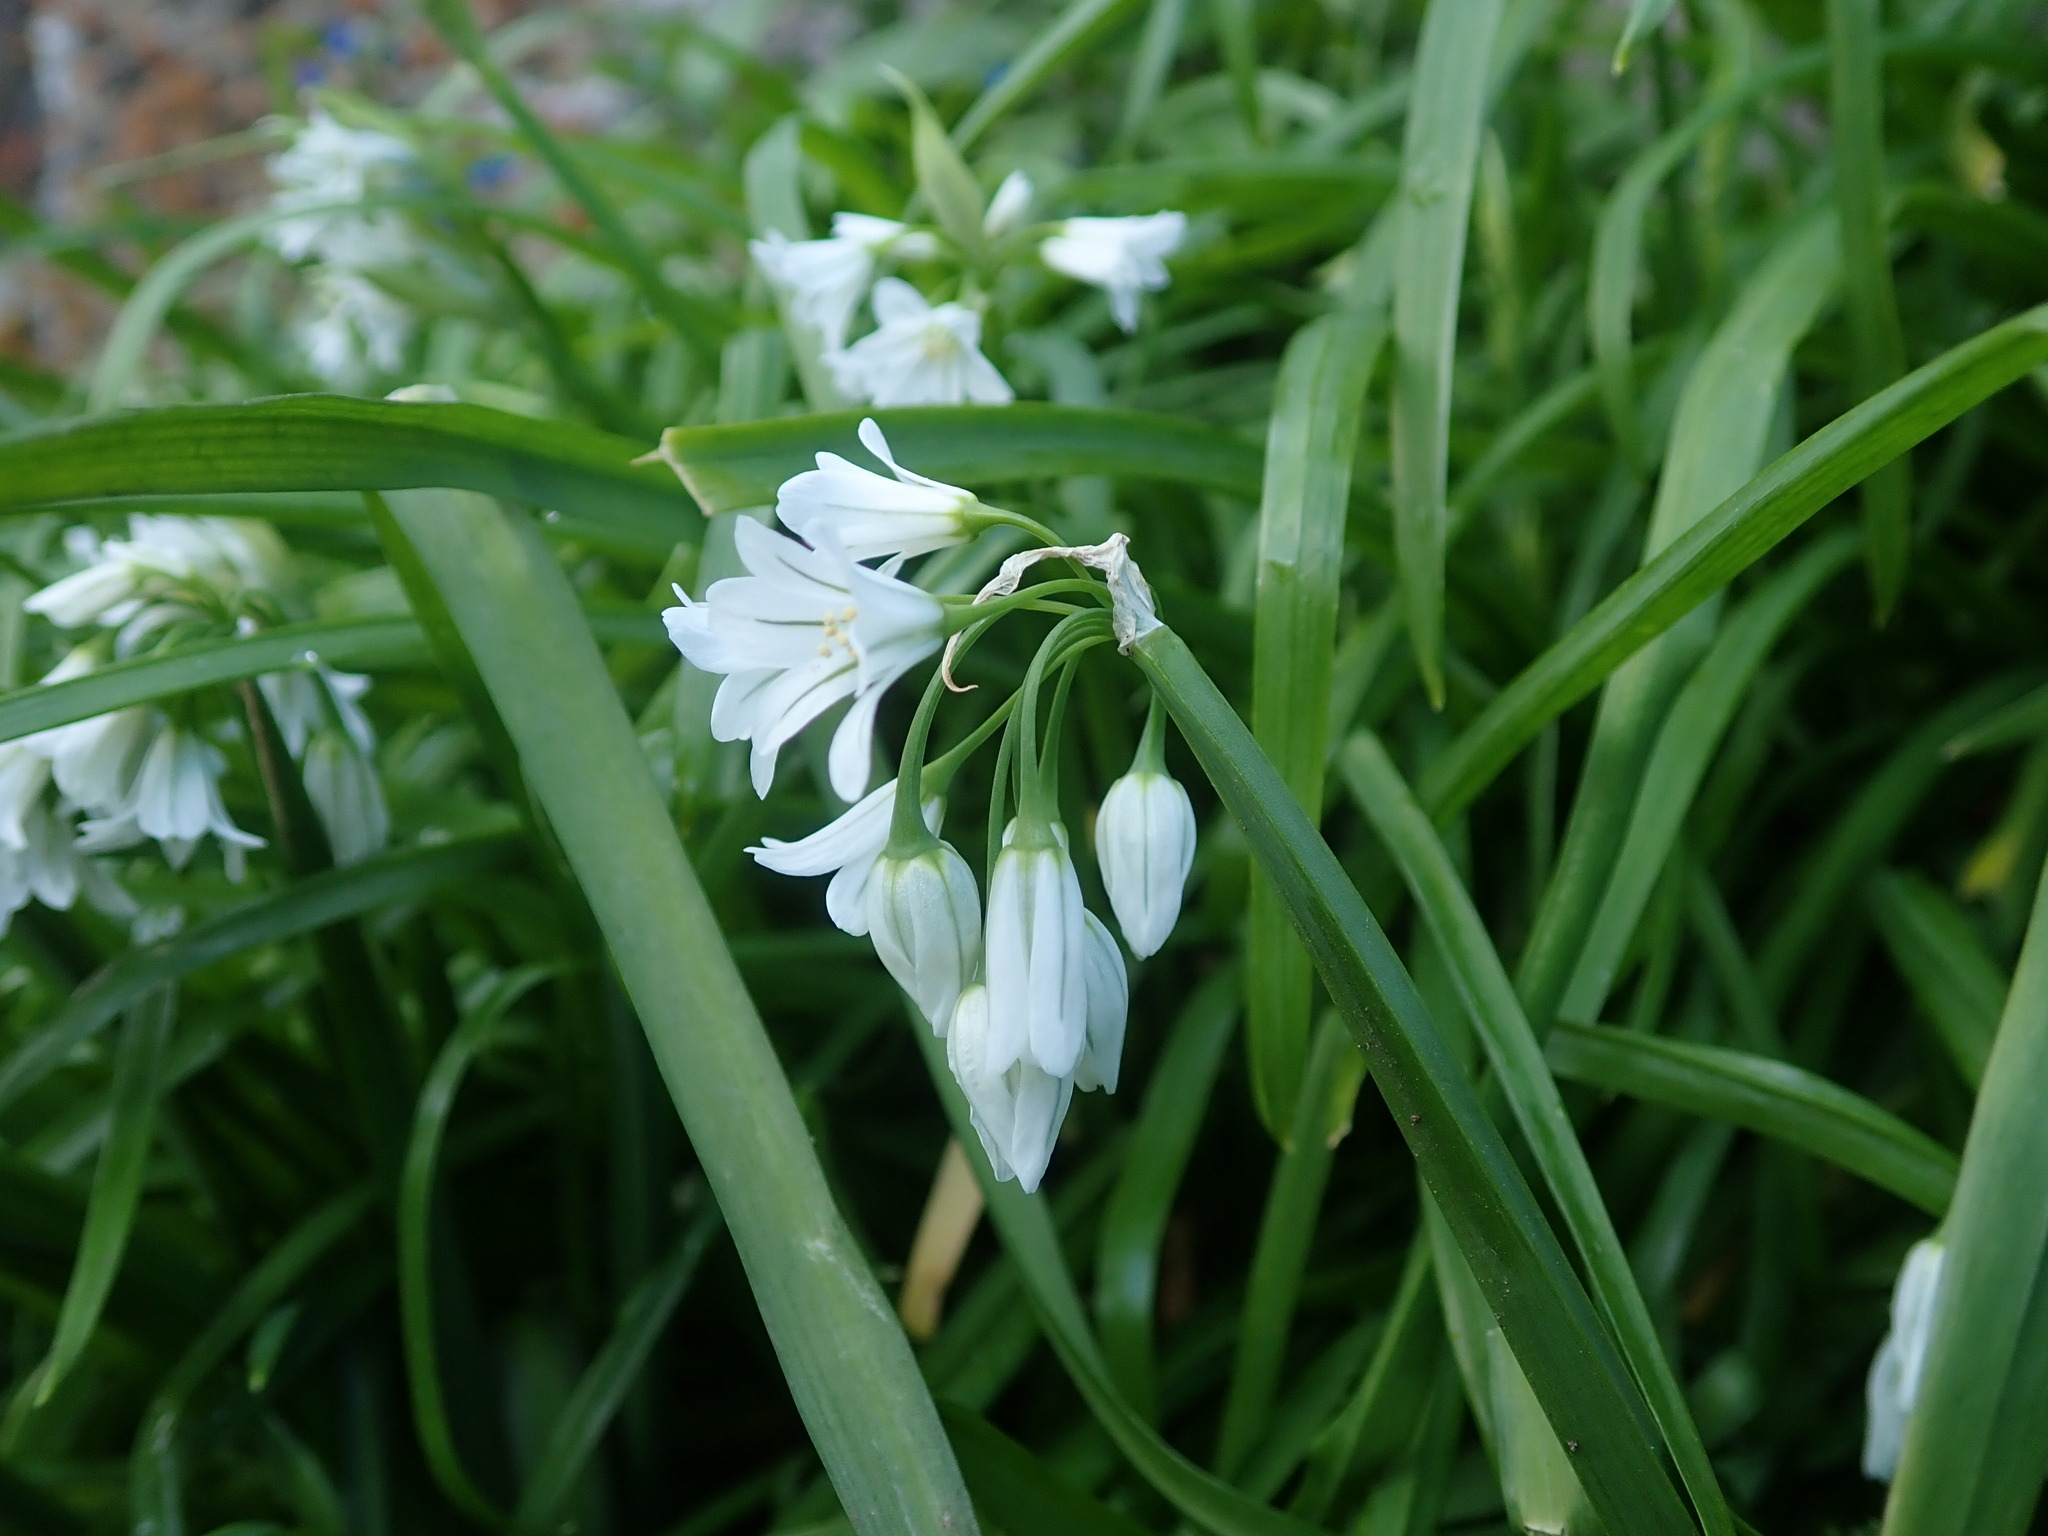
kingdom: Plantae
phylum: Tracheophyta
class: Liliopsida
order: Asparagales
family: Amaryllidaceae
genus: Allium
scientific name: Allium triquetrum
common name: Three-cornered garlic
